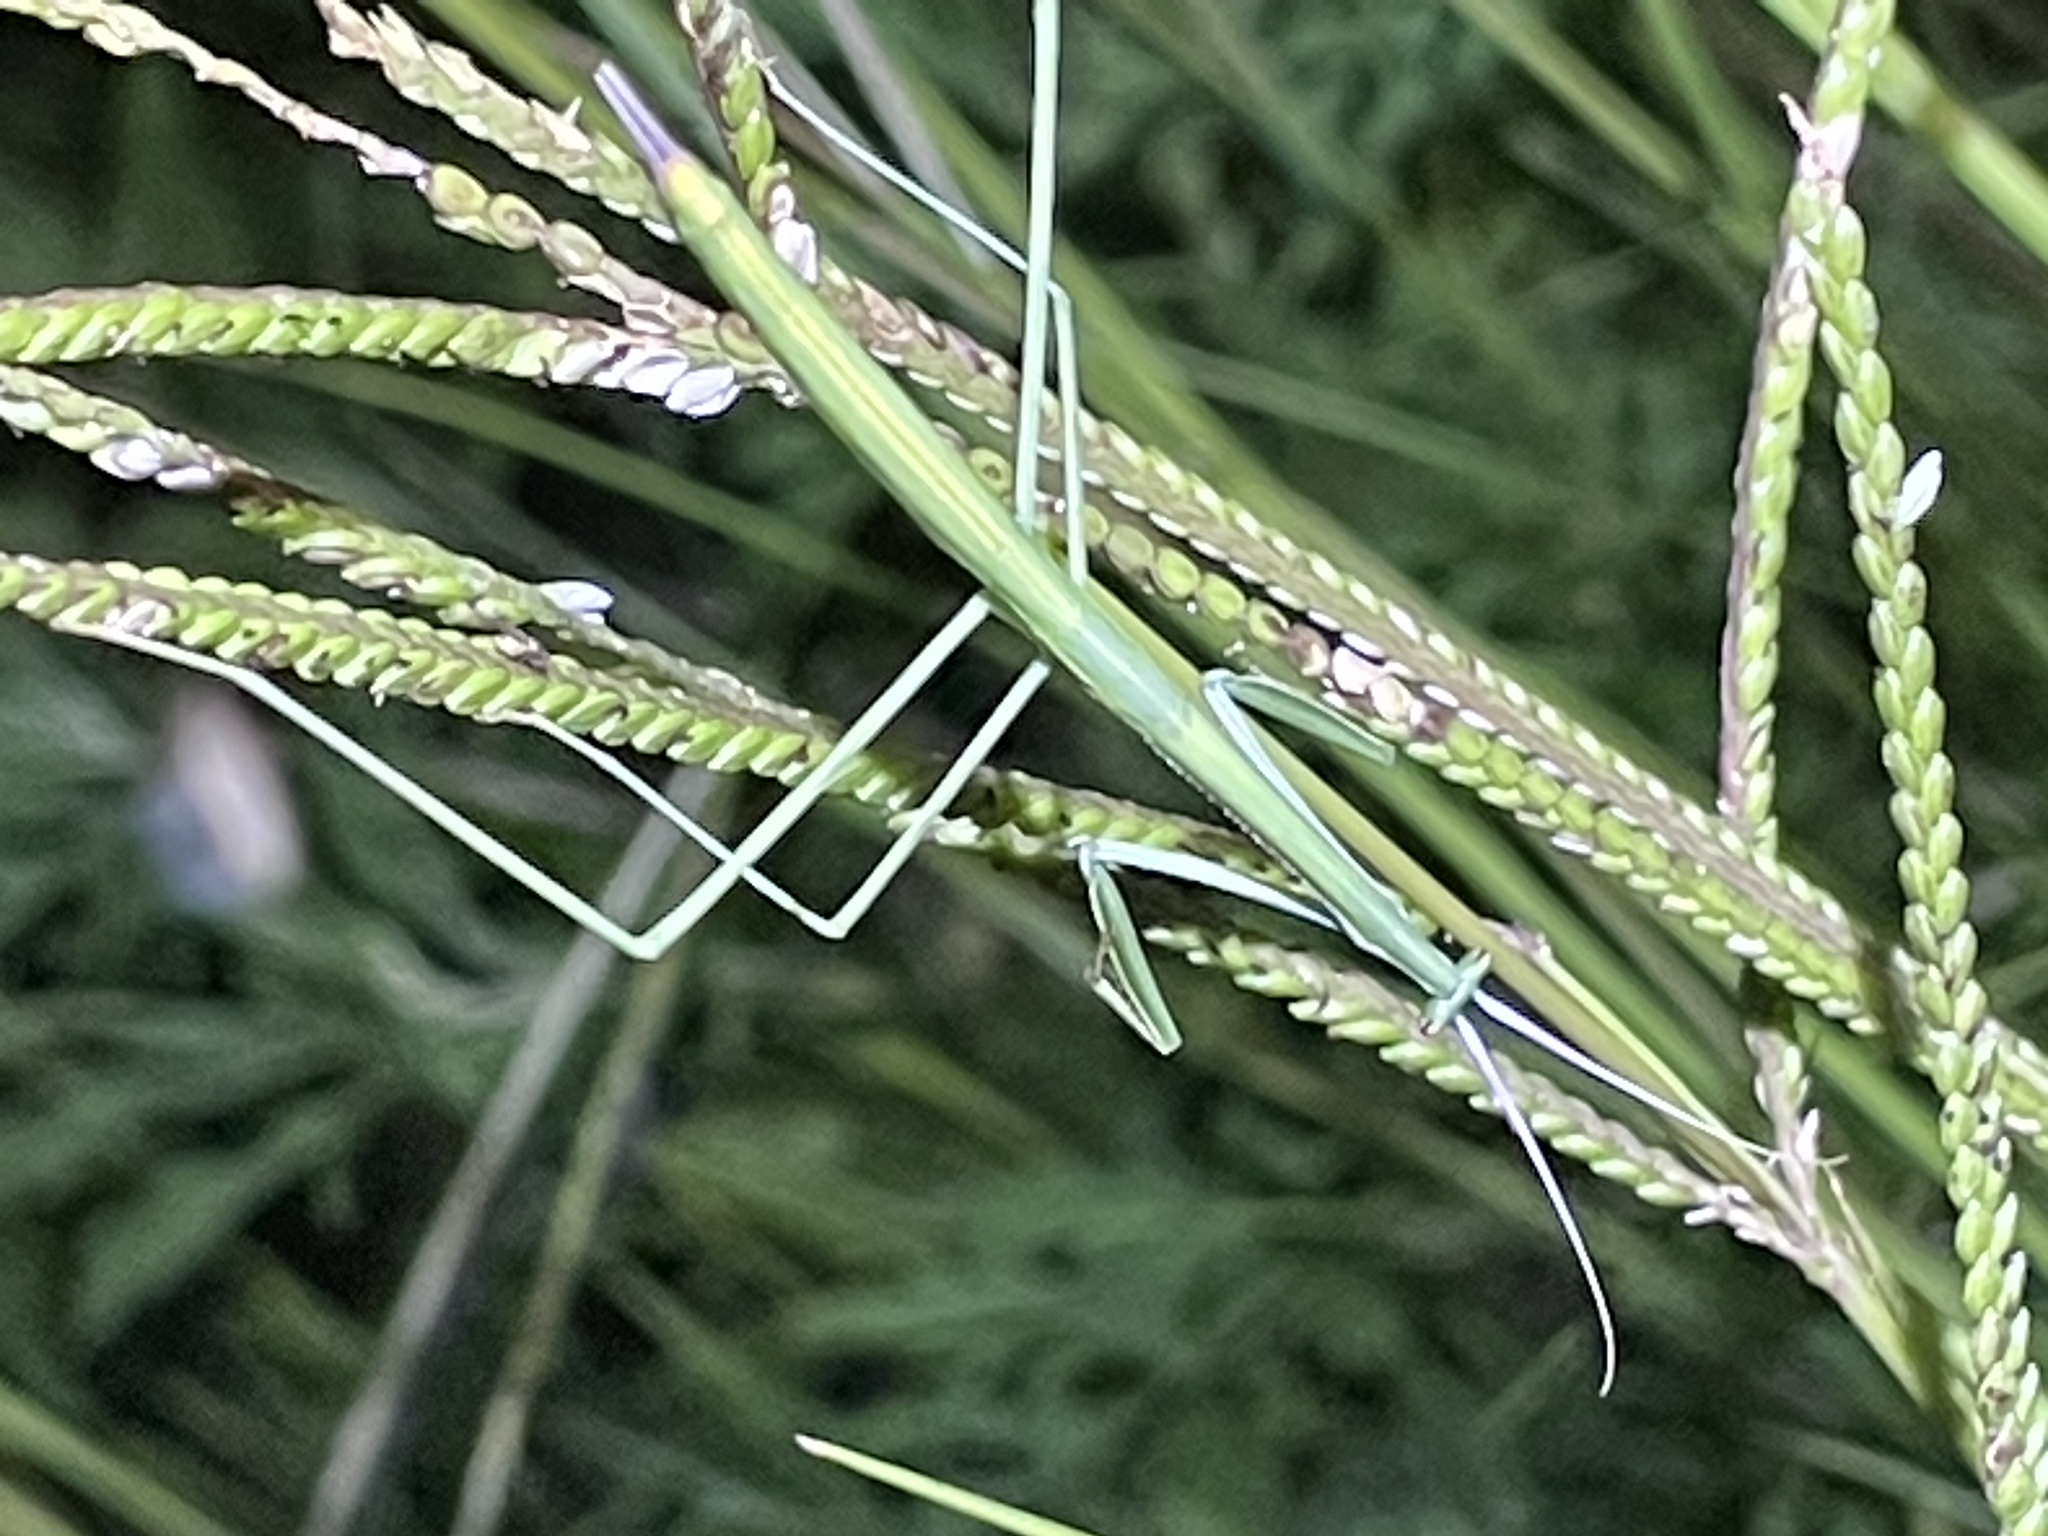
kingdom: Animalia
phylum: Arthropoda
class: Insecta
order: Mantodea
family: Coptopterygidae
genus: Brunneria
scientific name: Brunneria borealis
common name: Mantis
